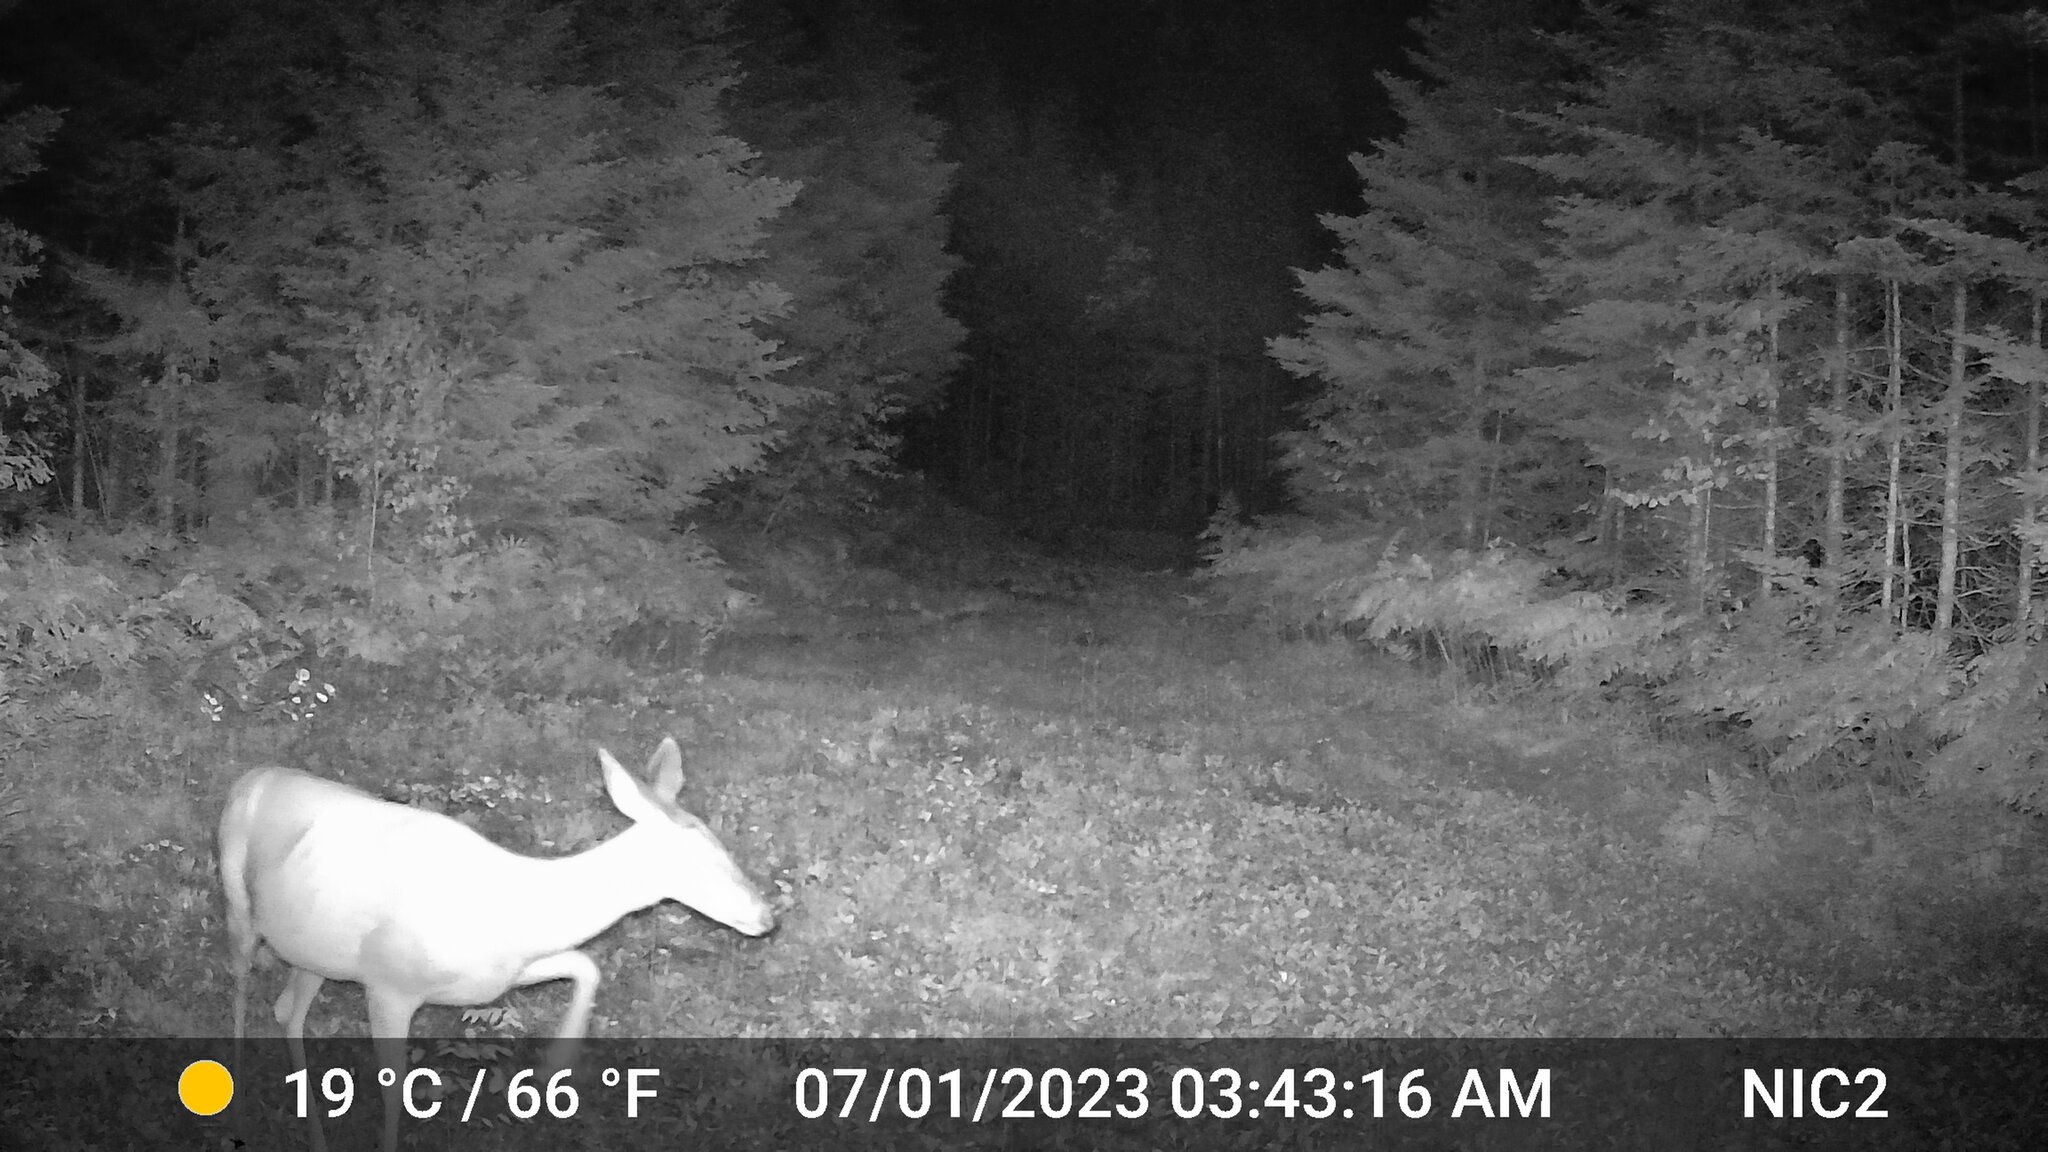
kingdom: Animalia
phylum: Chordata
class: Mammalia
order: Artiodactyla
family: Cervidae
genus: Odocoileus
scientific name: Odocoileus virginianus
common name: White-tailed deer
